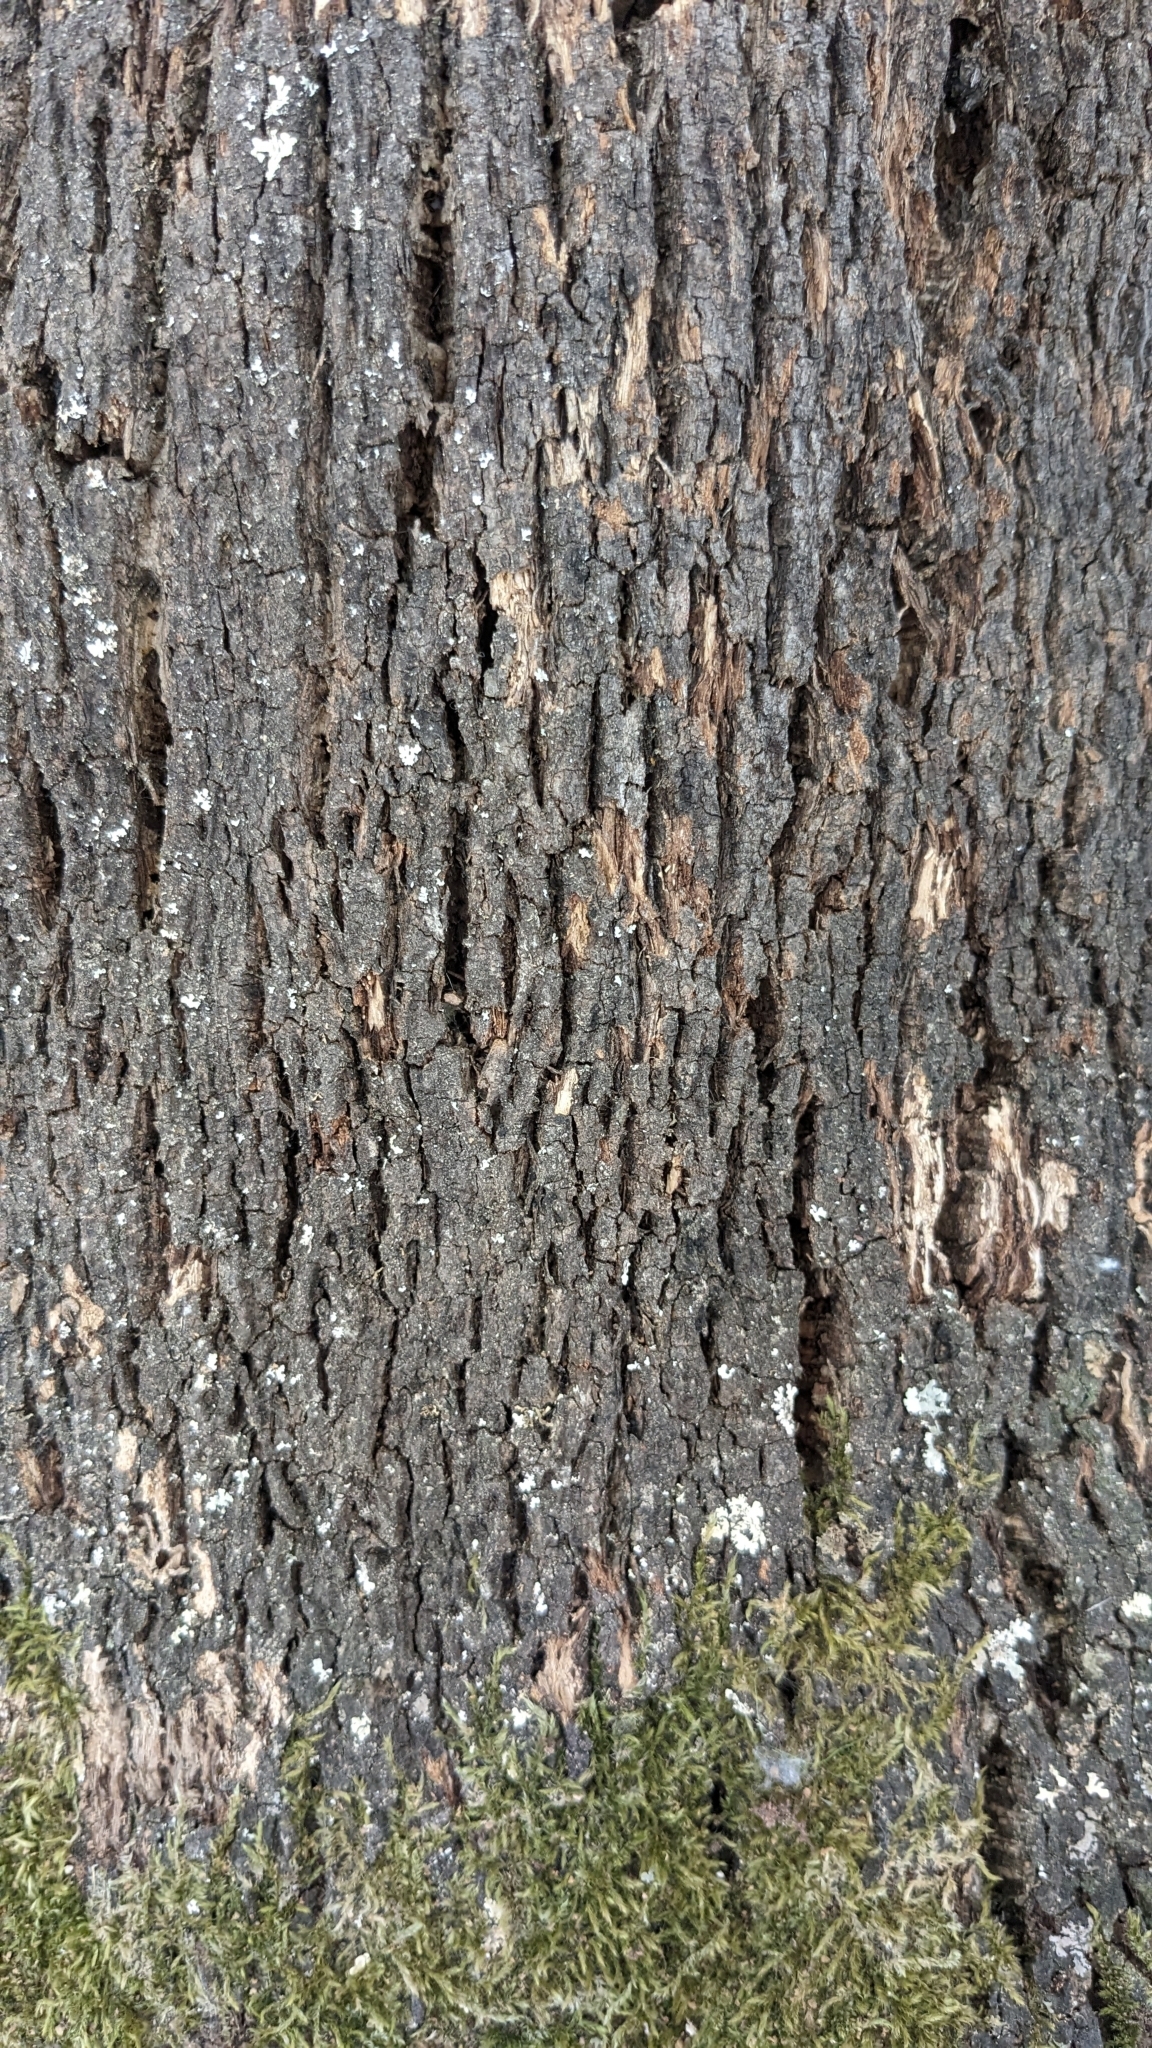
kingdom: Plantae
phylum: Tracheophyta
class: Magnoliopsida
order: Fagales
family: Fagaceae
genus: Quercus
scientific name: Quercus ilex
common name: Evergreen oak
